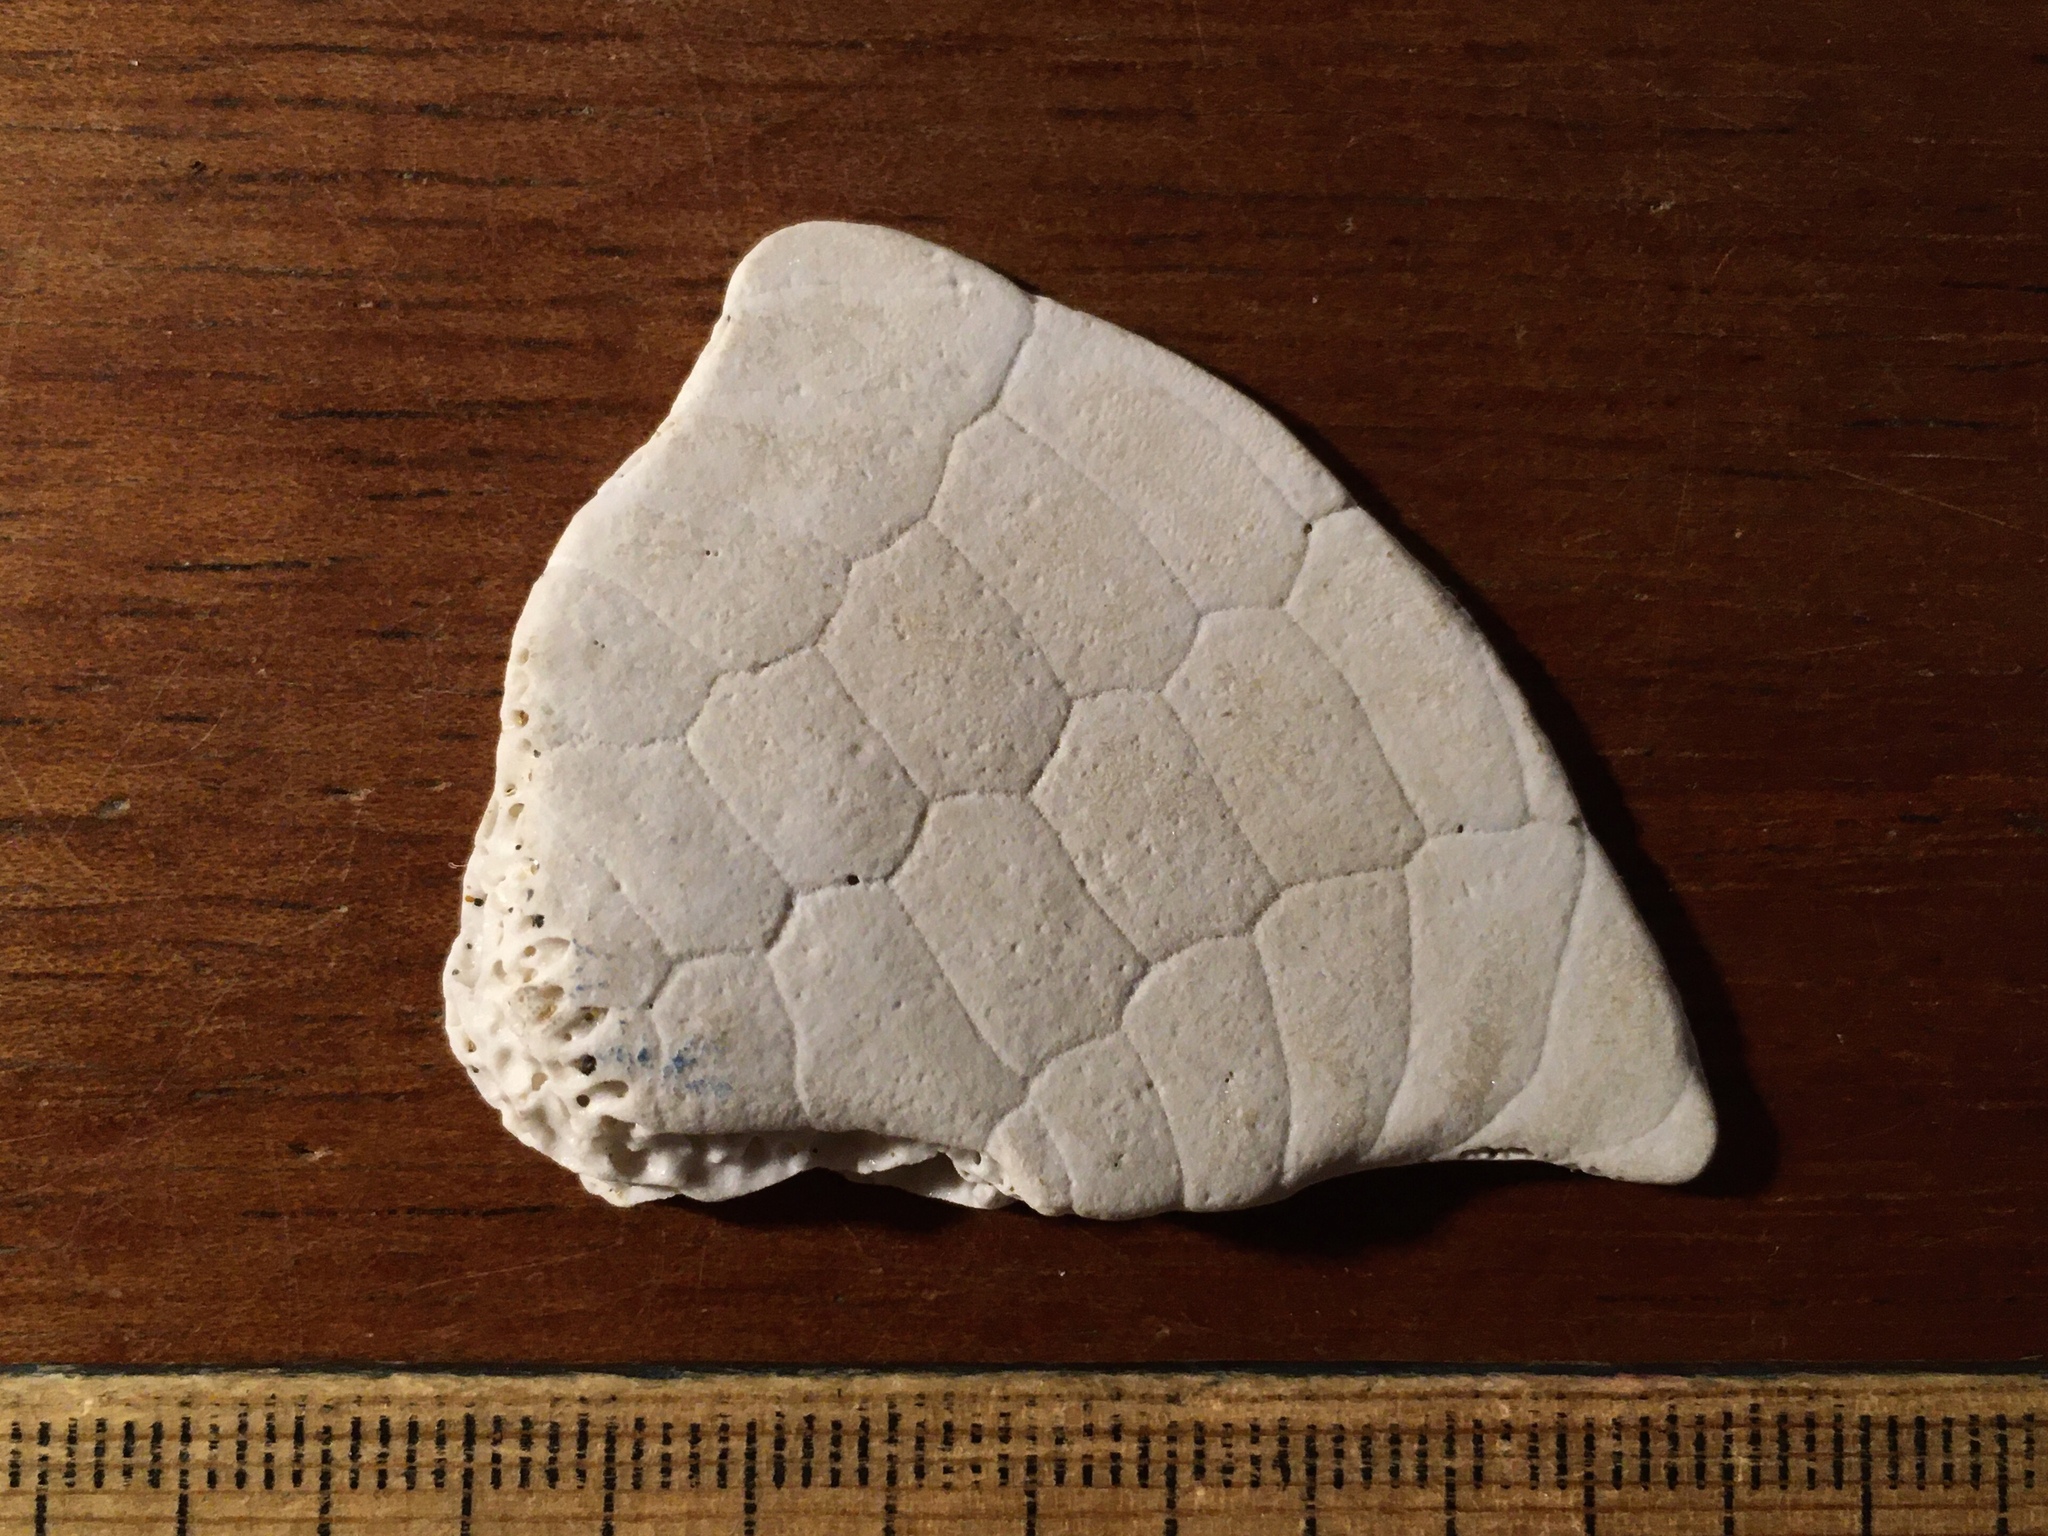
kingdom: Animalia
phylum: Echinodermata
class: Echinoidea
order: Echinolampadacea
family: Mellitidae
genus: Encope
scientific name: Encope emarginata
